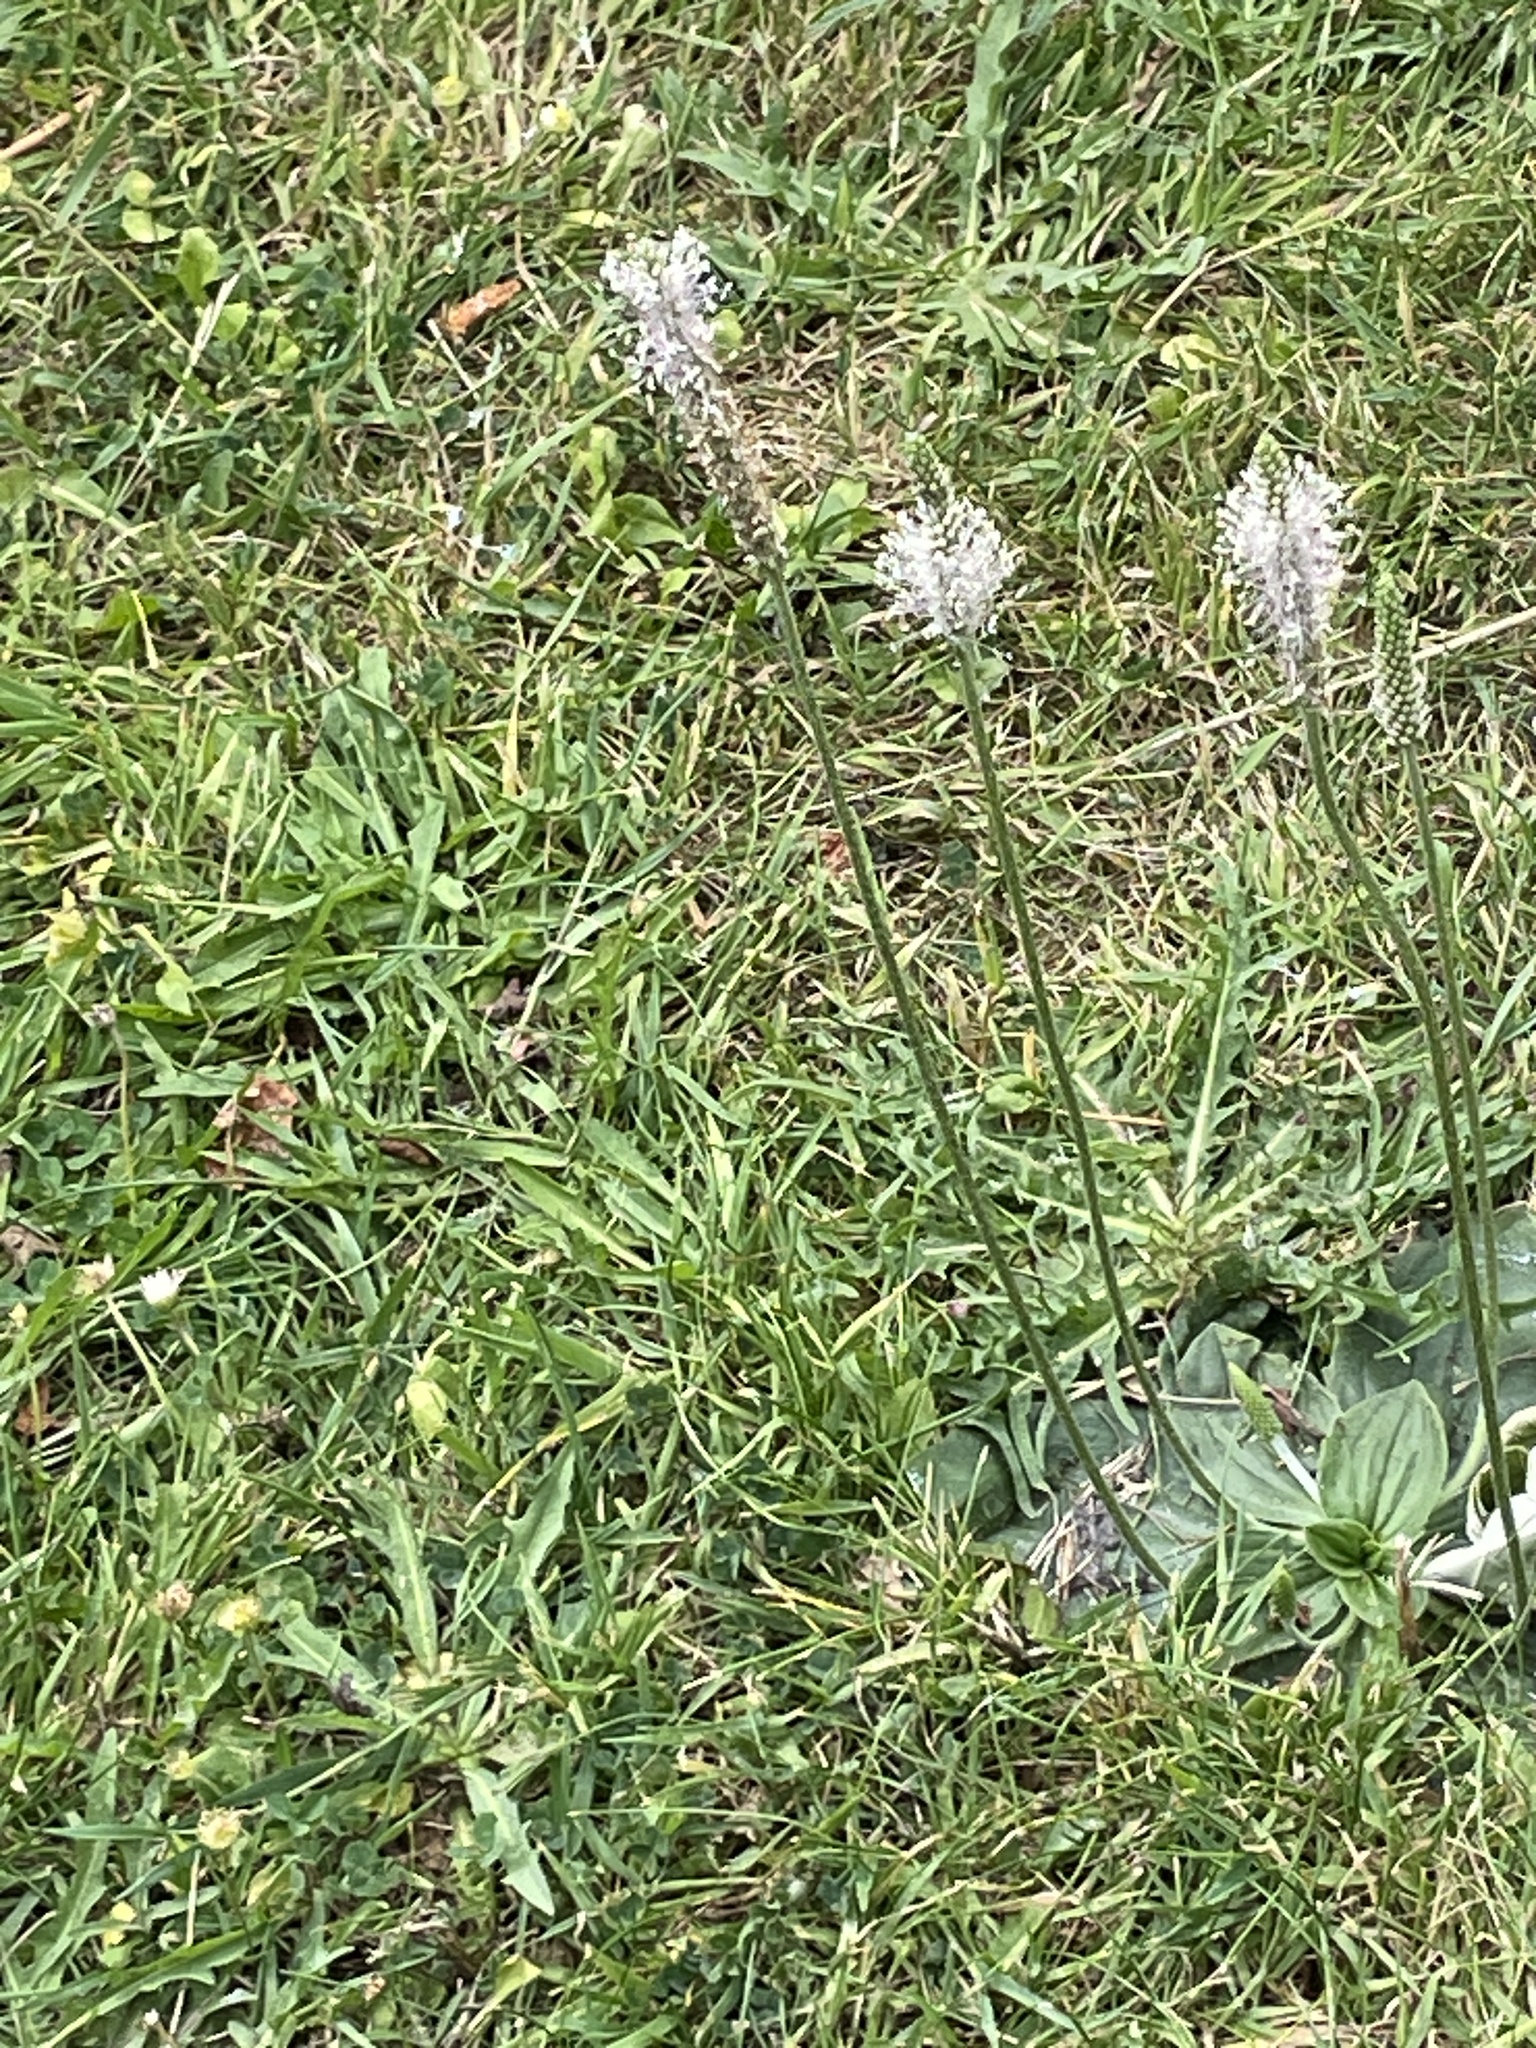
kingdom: Plantae
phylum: Tracheophyta
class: Magnoliopsida
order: Lamiales
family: Plantaginaceae
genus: Plantago
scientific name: Plantago media
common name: Hoary plantain
